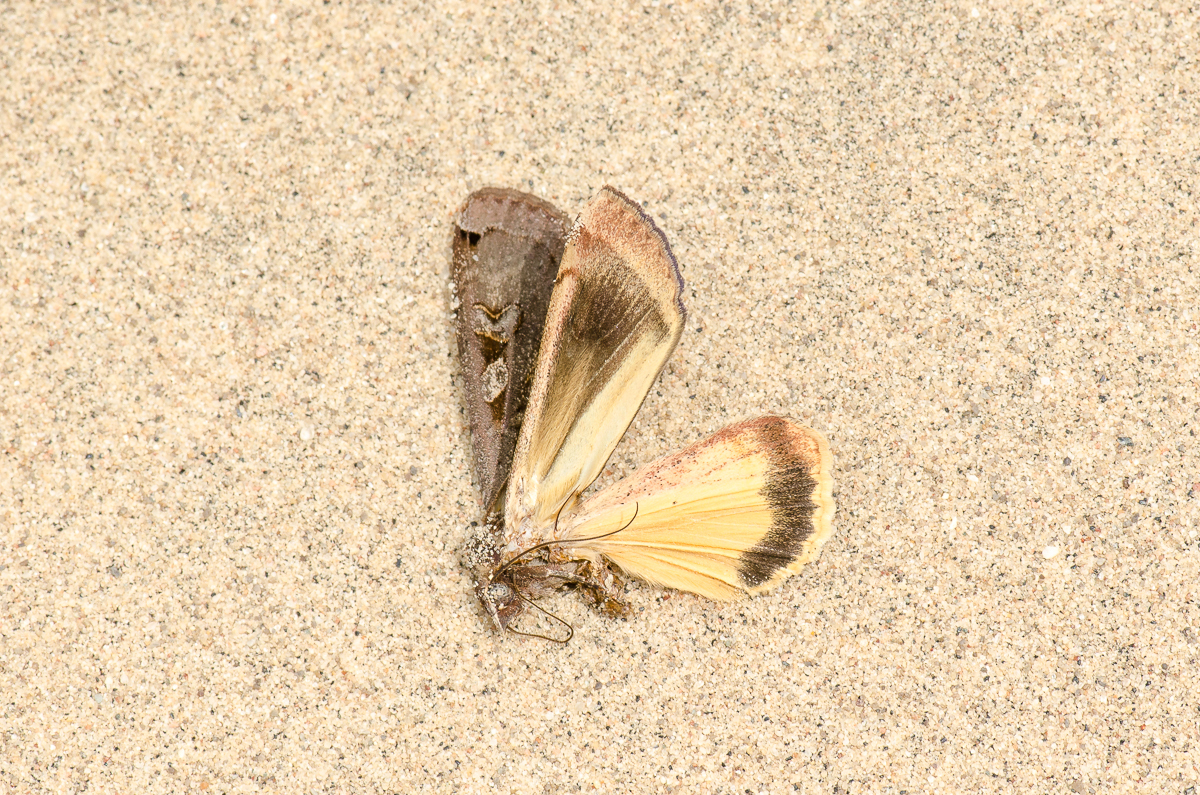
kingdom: Animalia
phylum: Arthropoda
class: Insecta
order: Lepidoptera
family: Noctuidae
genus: Noctua
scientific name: Noctua pronuba
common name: Large yellow underwing
